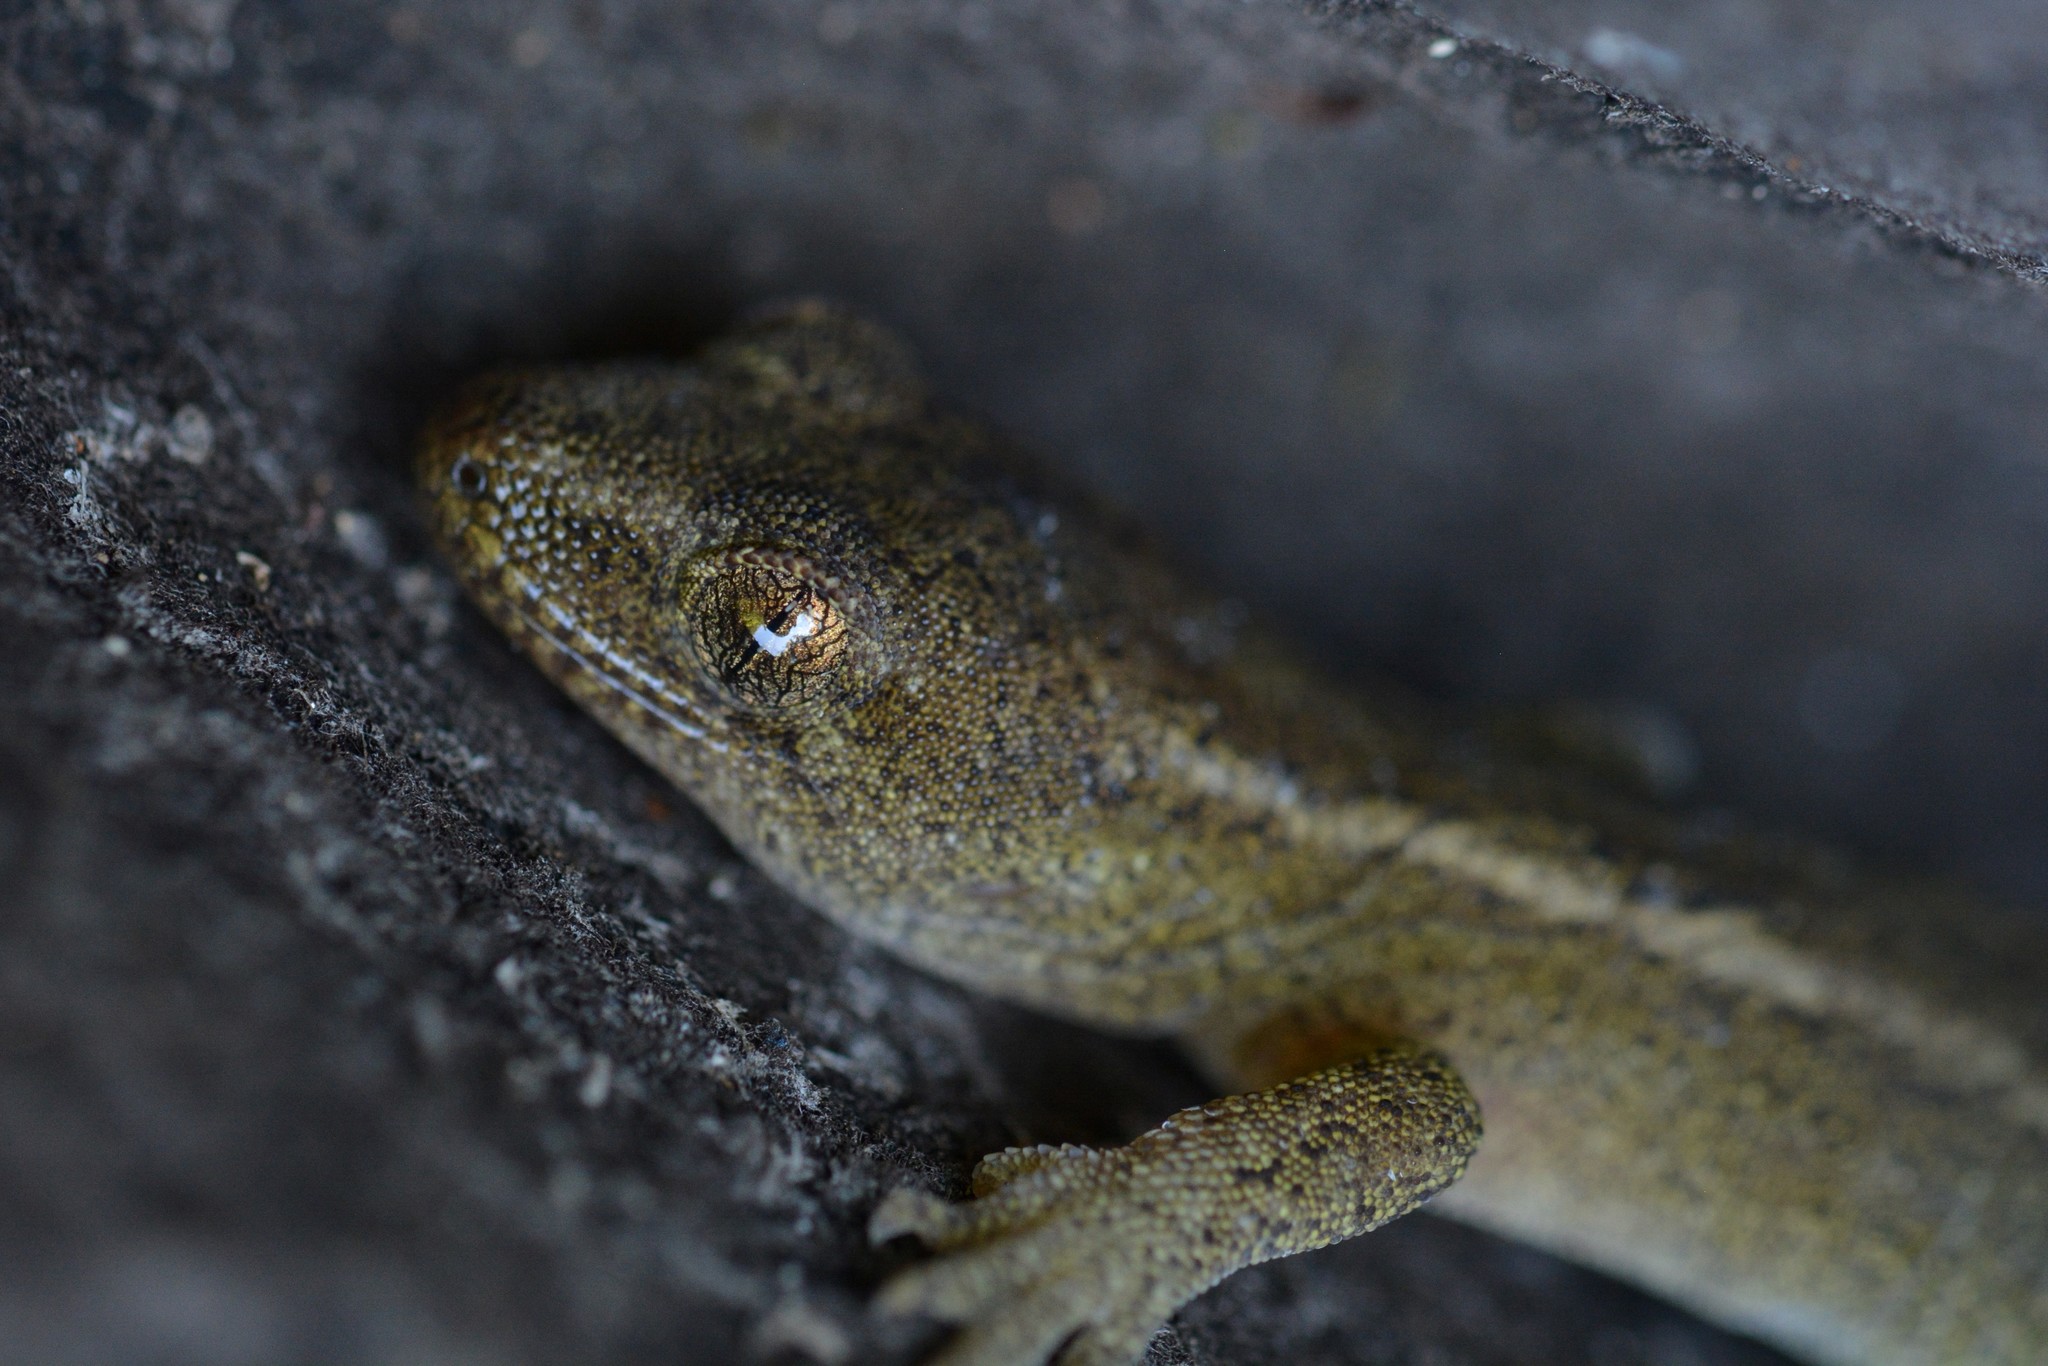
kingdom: Animalia
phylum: Chordata
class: Squamata
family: Diplodactylidae
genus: Woodworthia
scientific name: Woodworthia maculata
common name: Raukawa gecko
